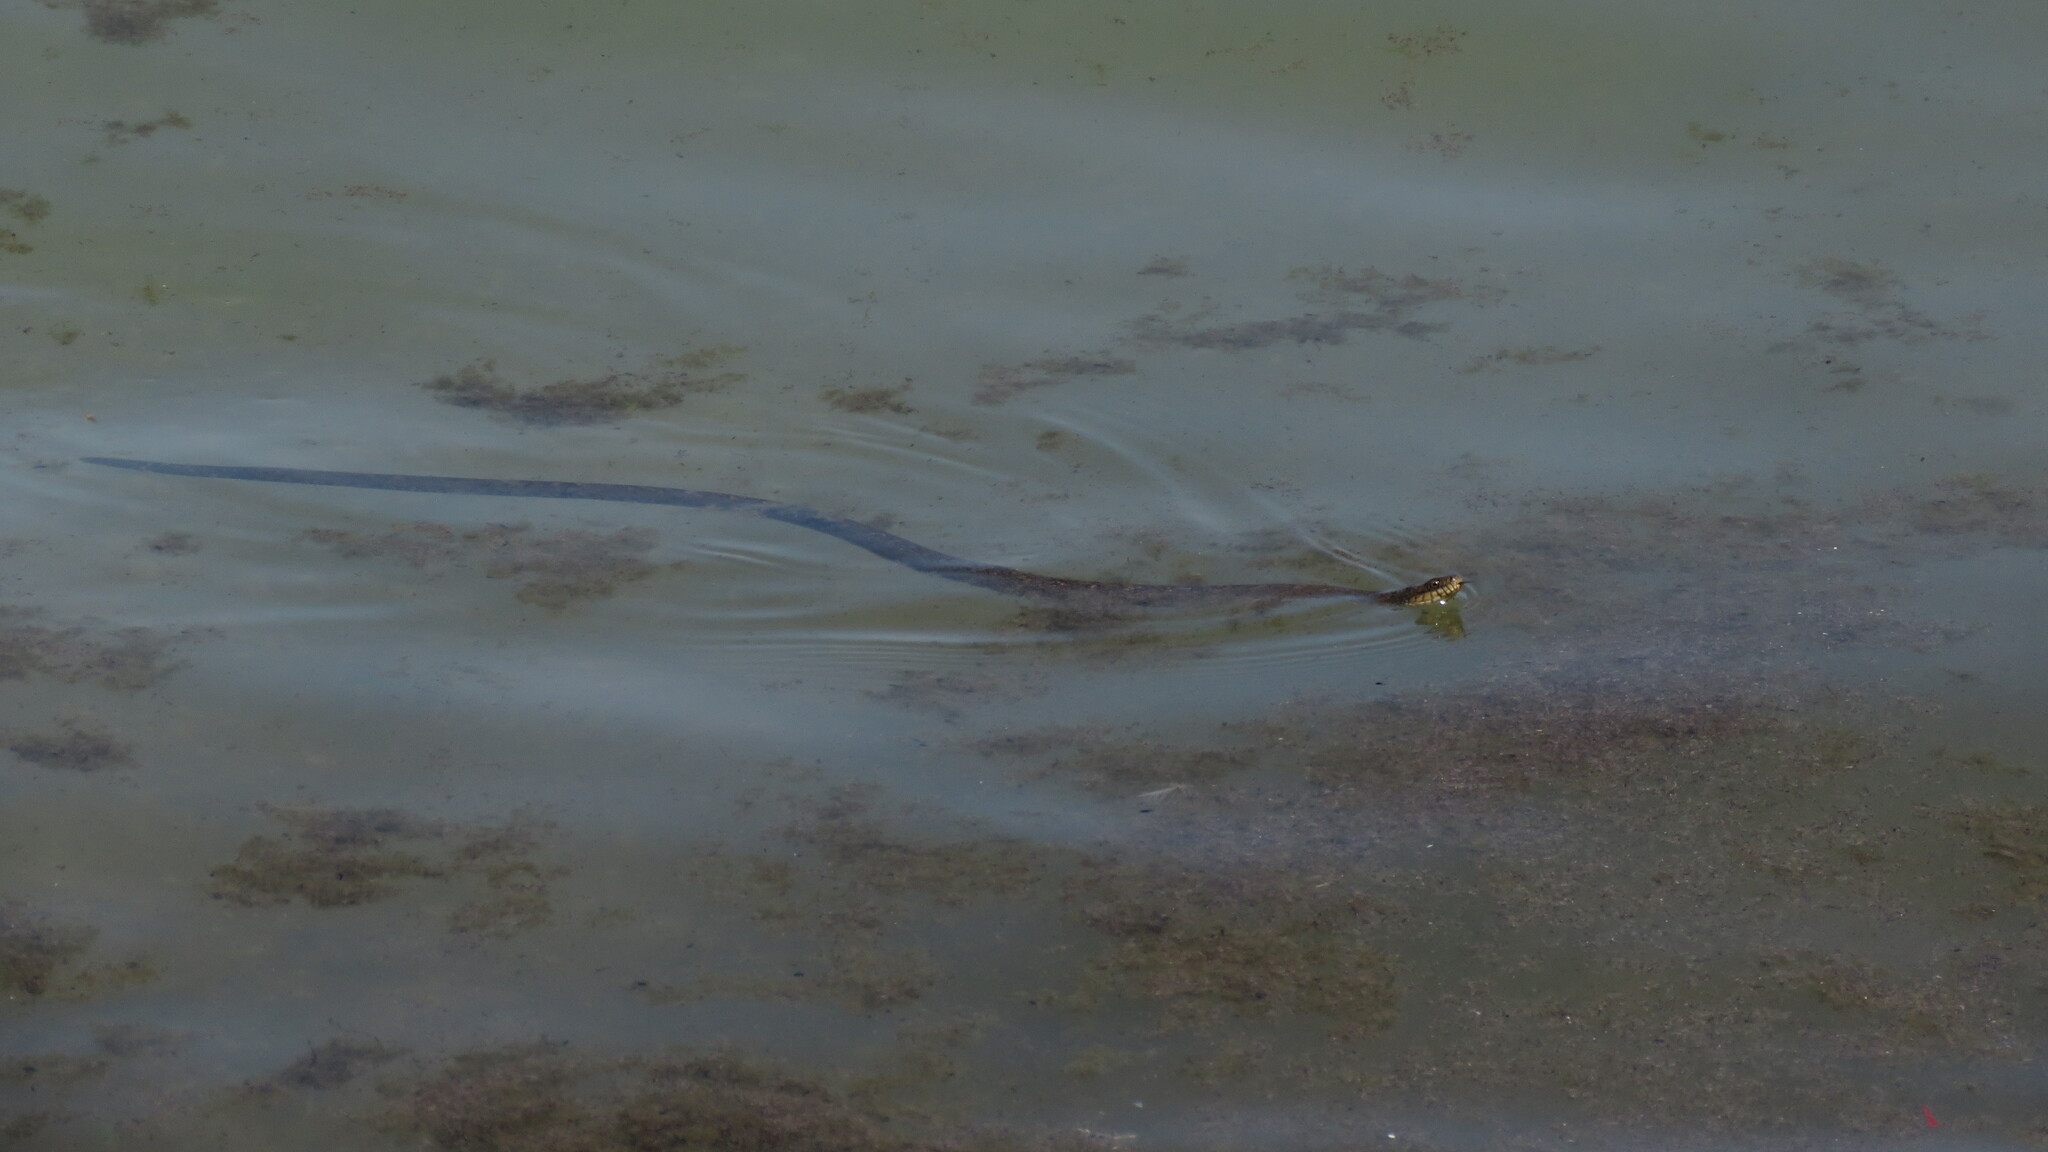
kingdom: Animalia
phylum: Chordata
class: Squamata
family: Colubridae
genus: Nerodia
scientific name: Nerodia sipedon
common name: Northern water snake
